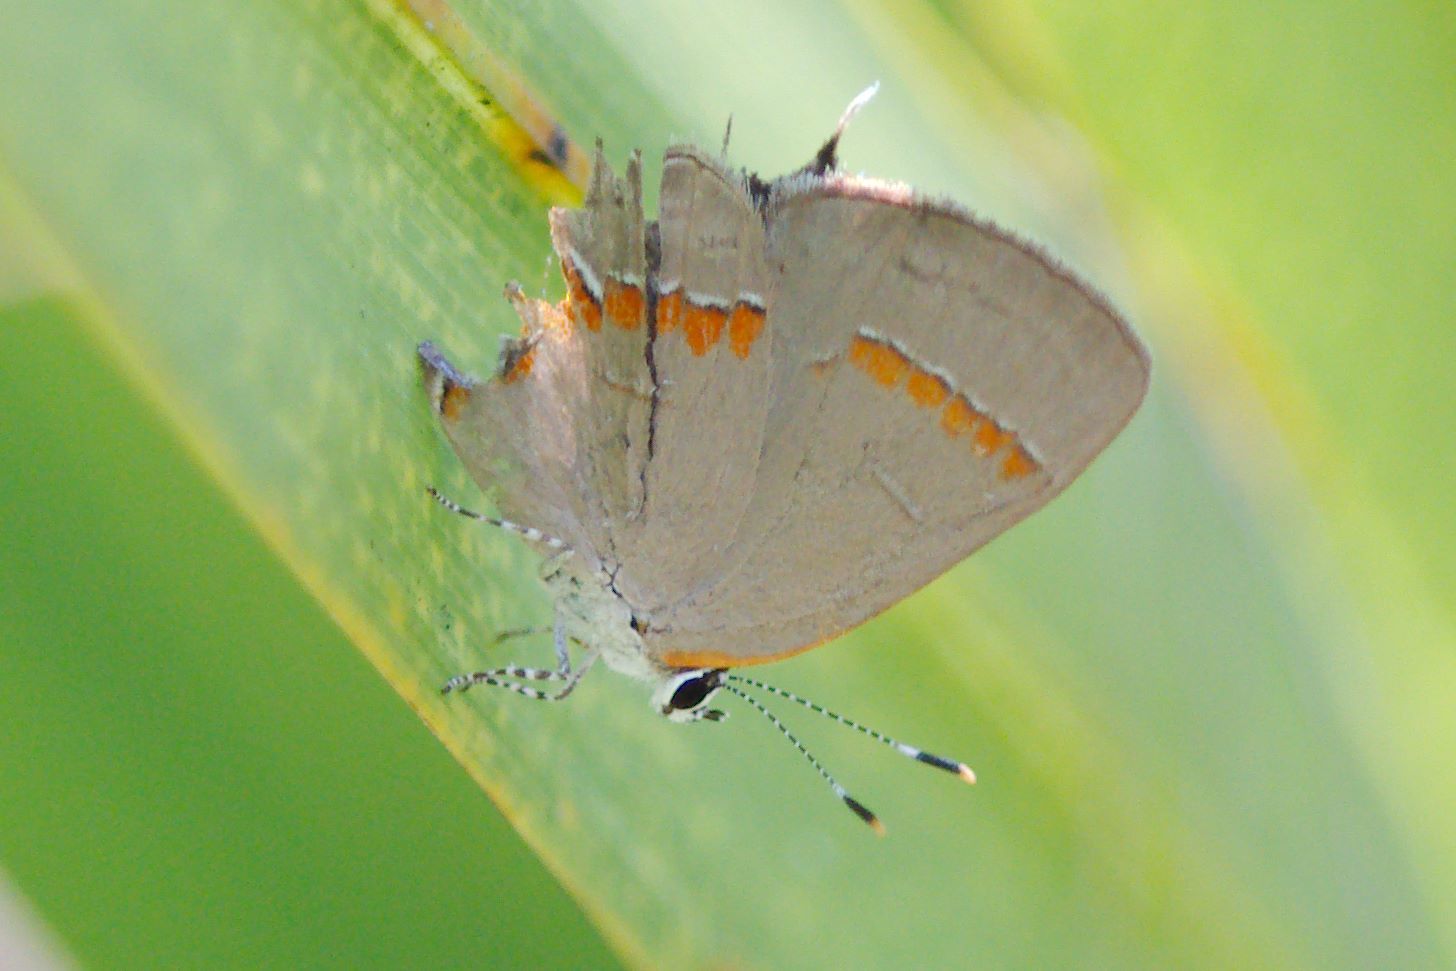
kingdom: Animalia
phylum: Arthropoda
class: Insecta
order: Lepidoptera
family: Lycaenidae
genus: Calycopis
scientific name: Calycopis cecrops
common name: Red-banded hairstreak
